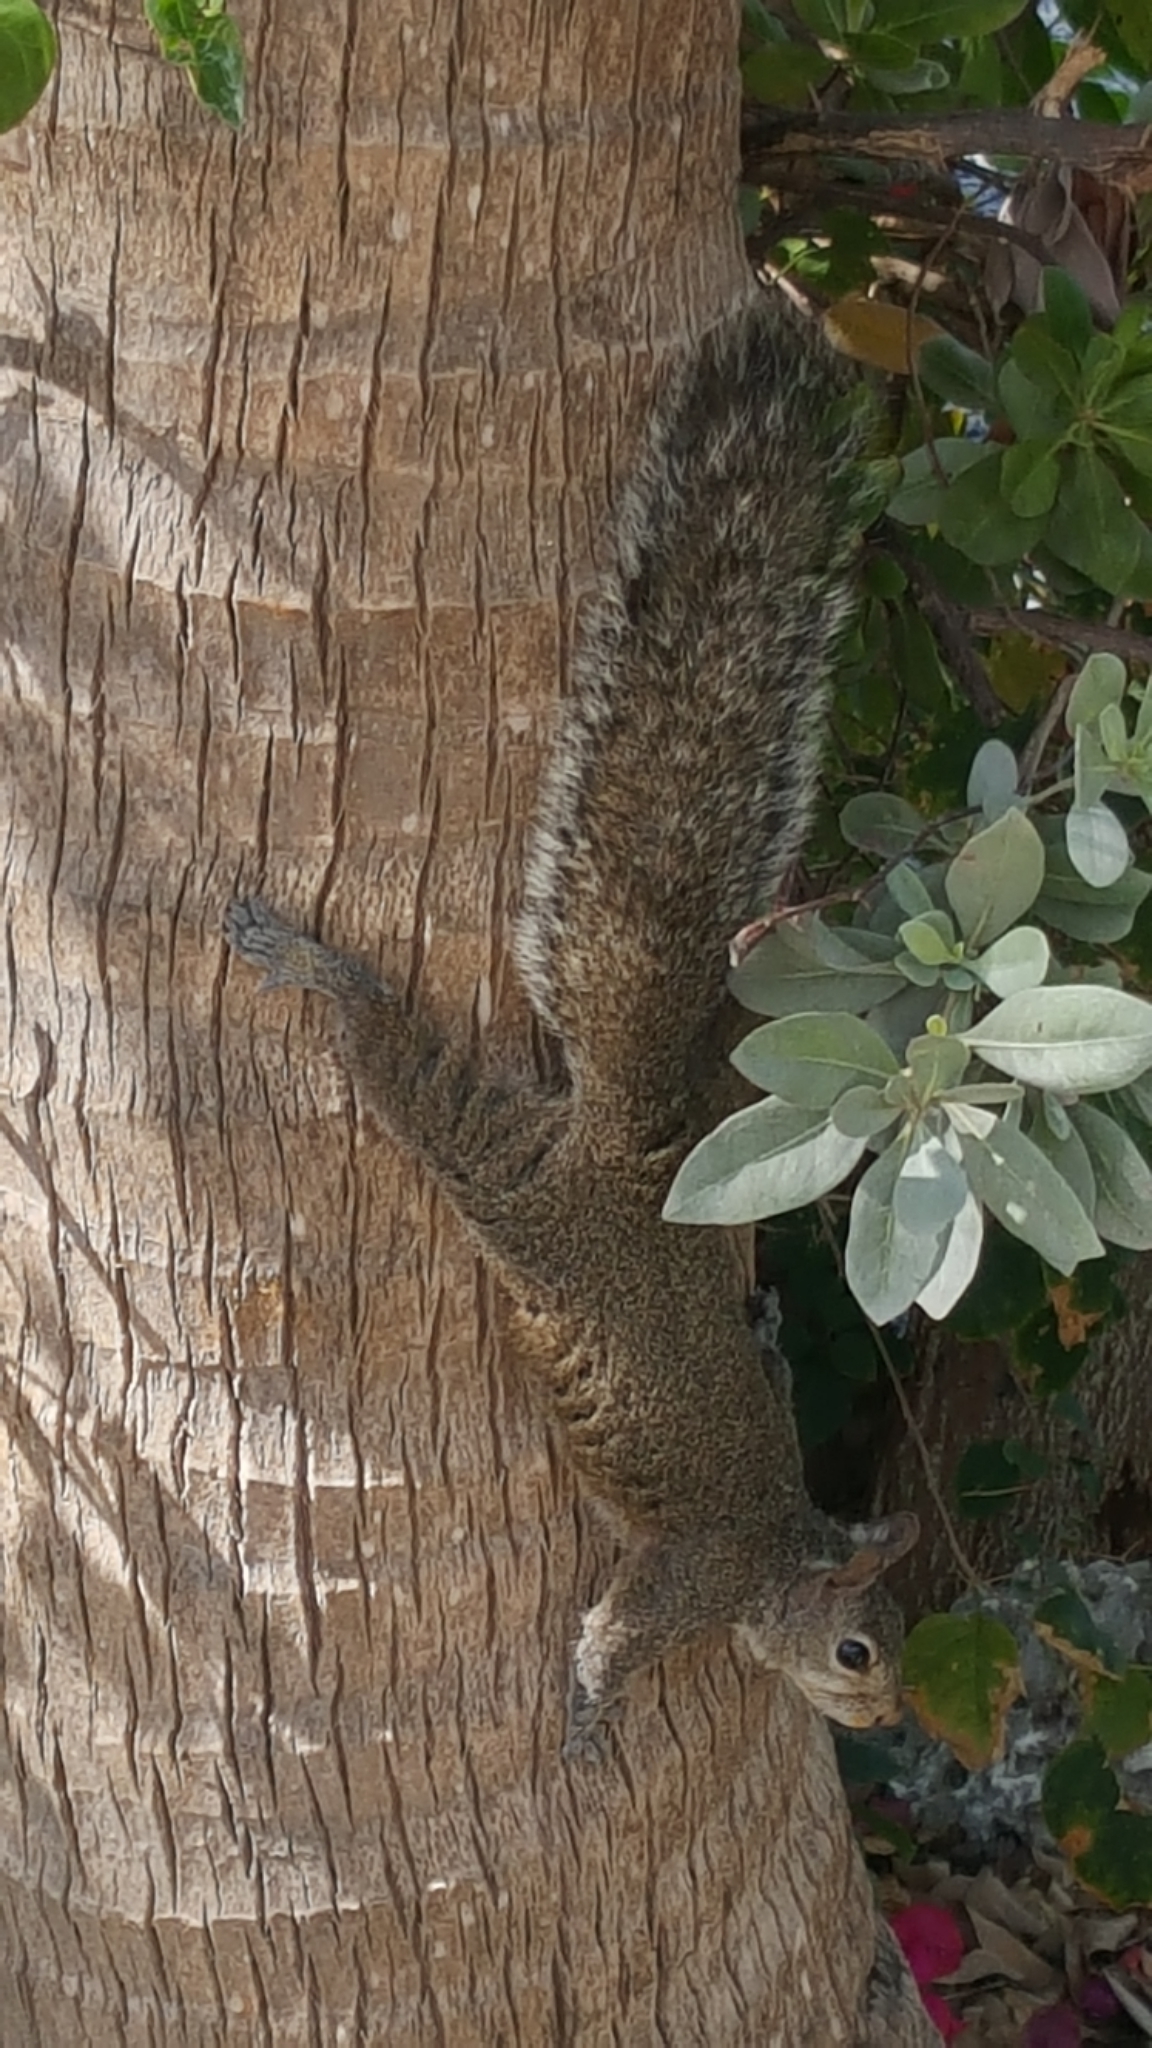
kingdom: Animalia
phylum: Chordata
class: Mammalia
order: Rodentia
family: Sciuridae
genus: Sciurus
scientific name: Sciurus carolinensis
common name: Eastern gray squirrel
